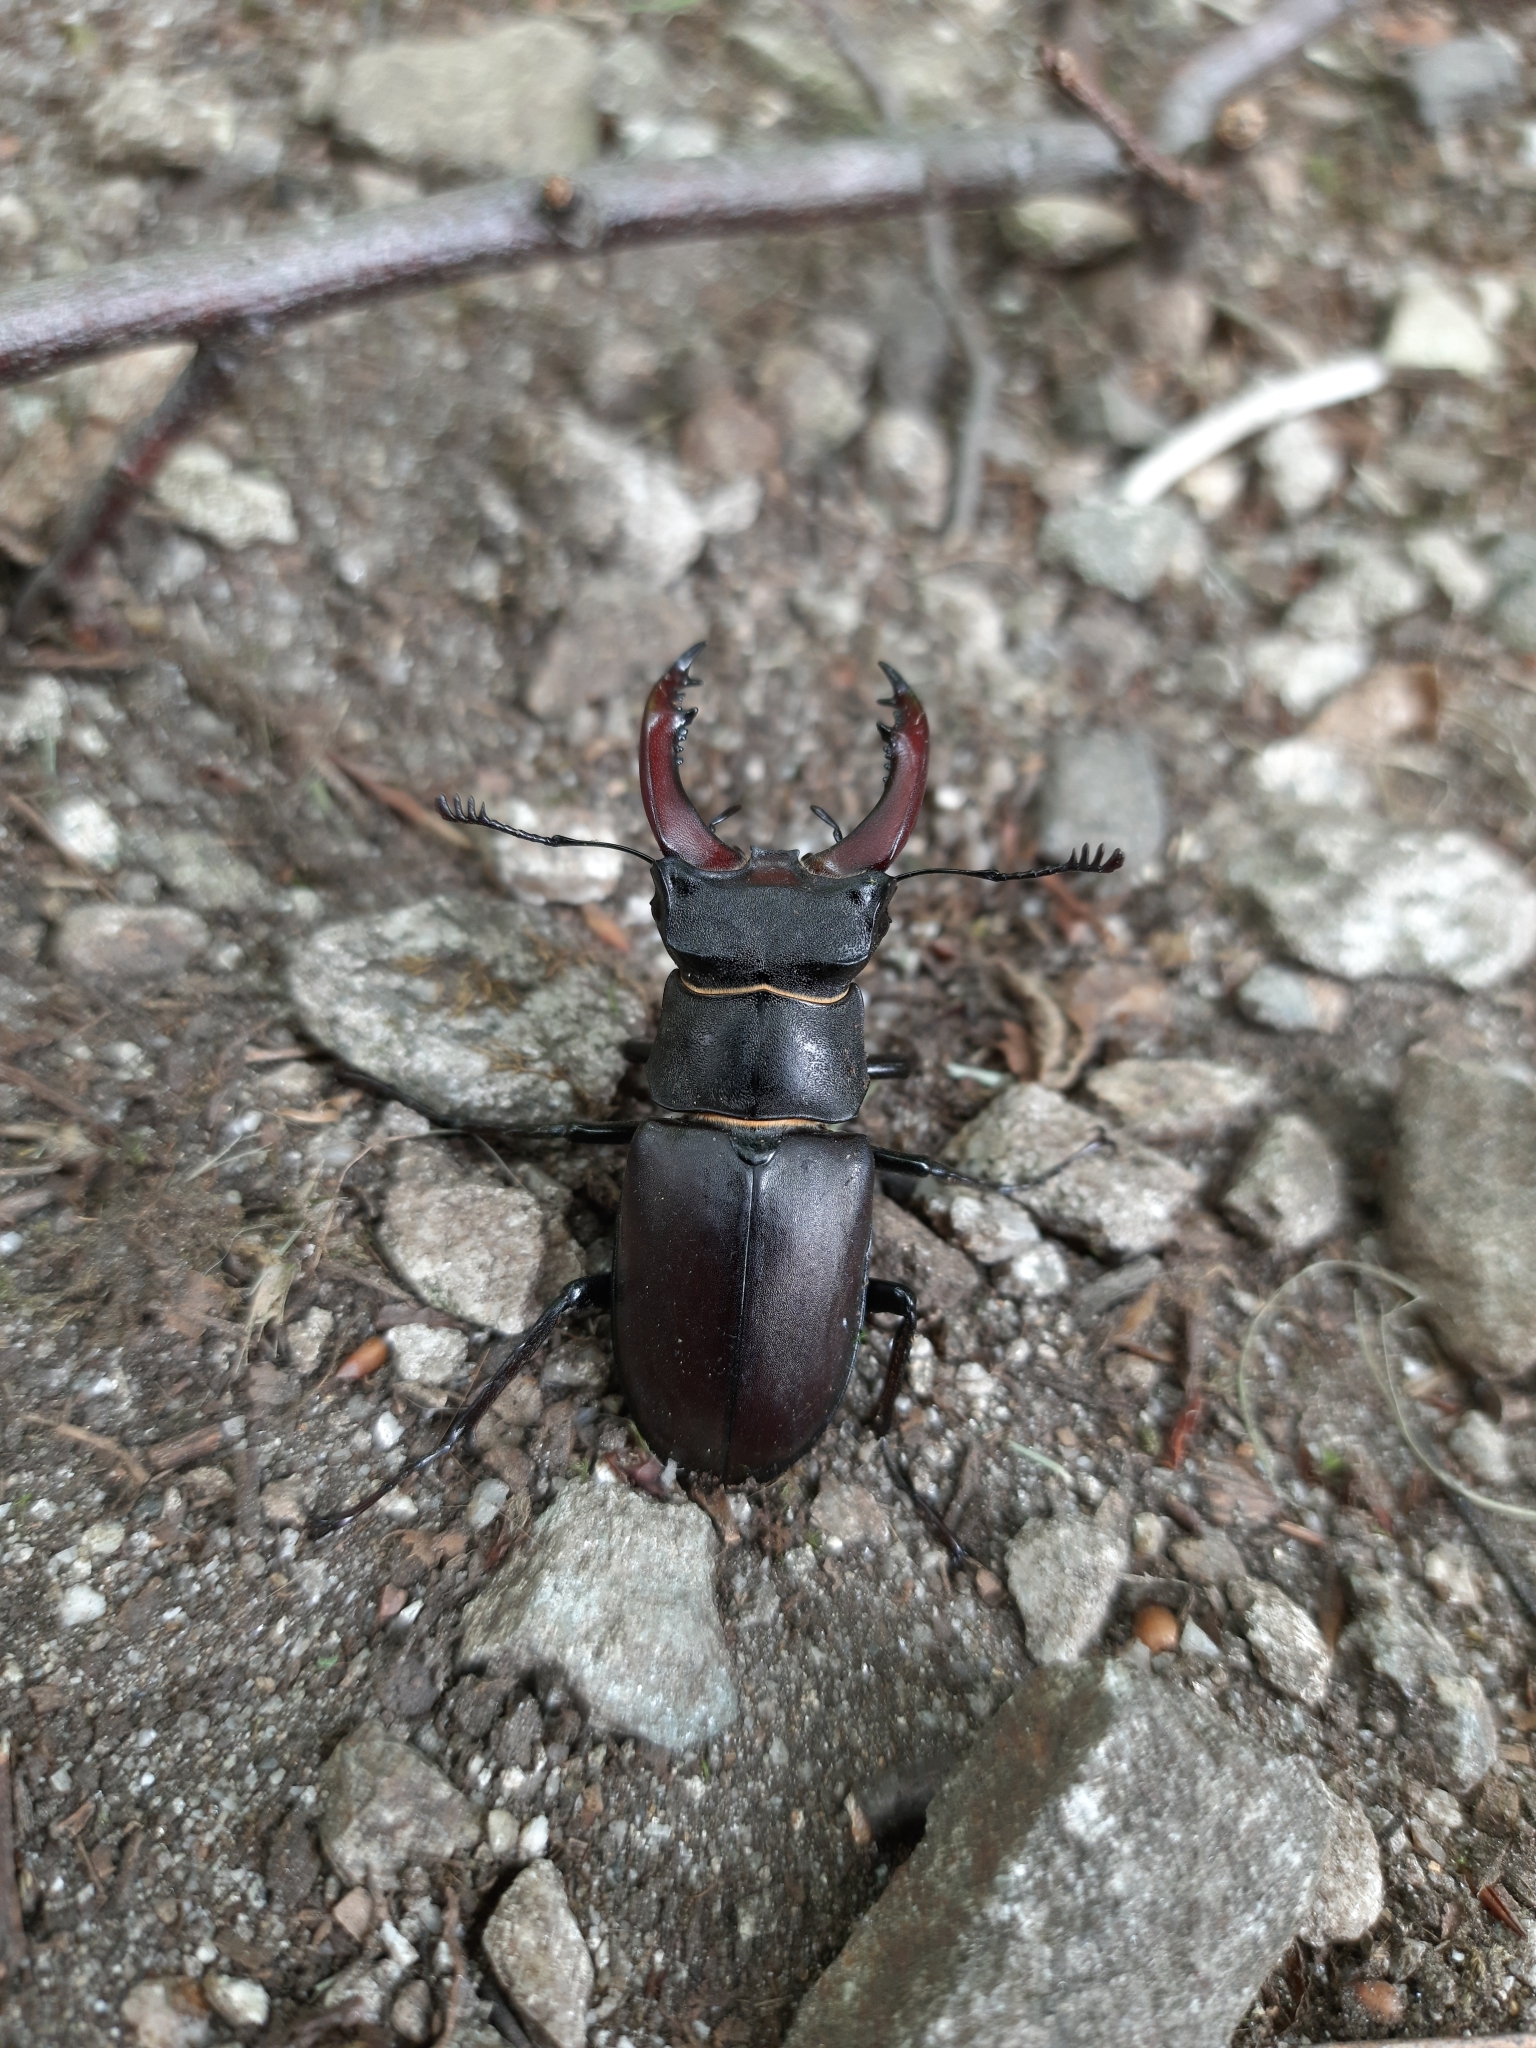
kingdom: Animalia
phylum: Arthropoda
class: Insecta
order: Coleoptera
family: Lucanidae
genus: Lucanus
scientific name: Lucanus cervus
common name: Stag beetle
